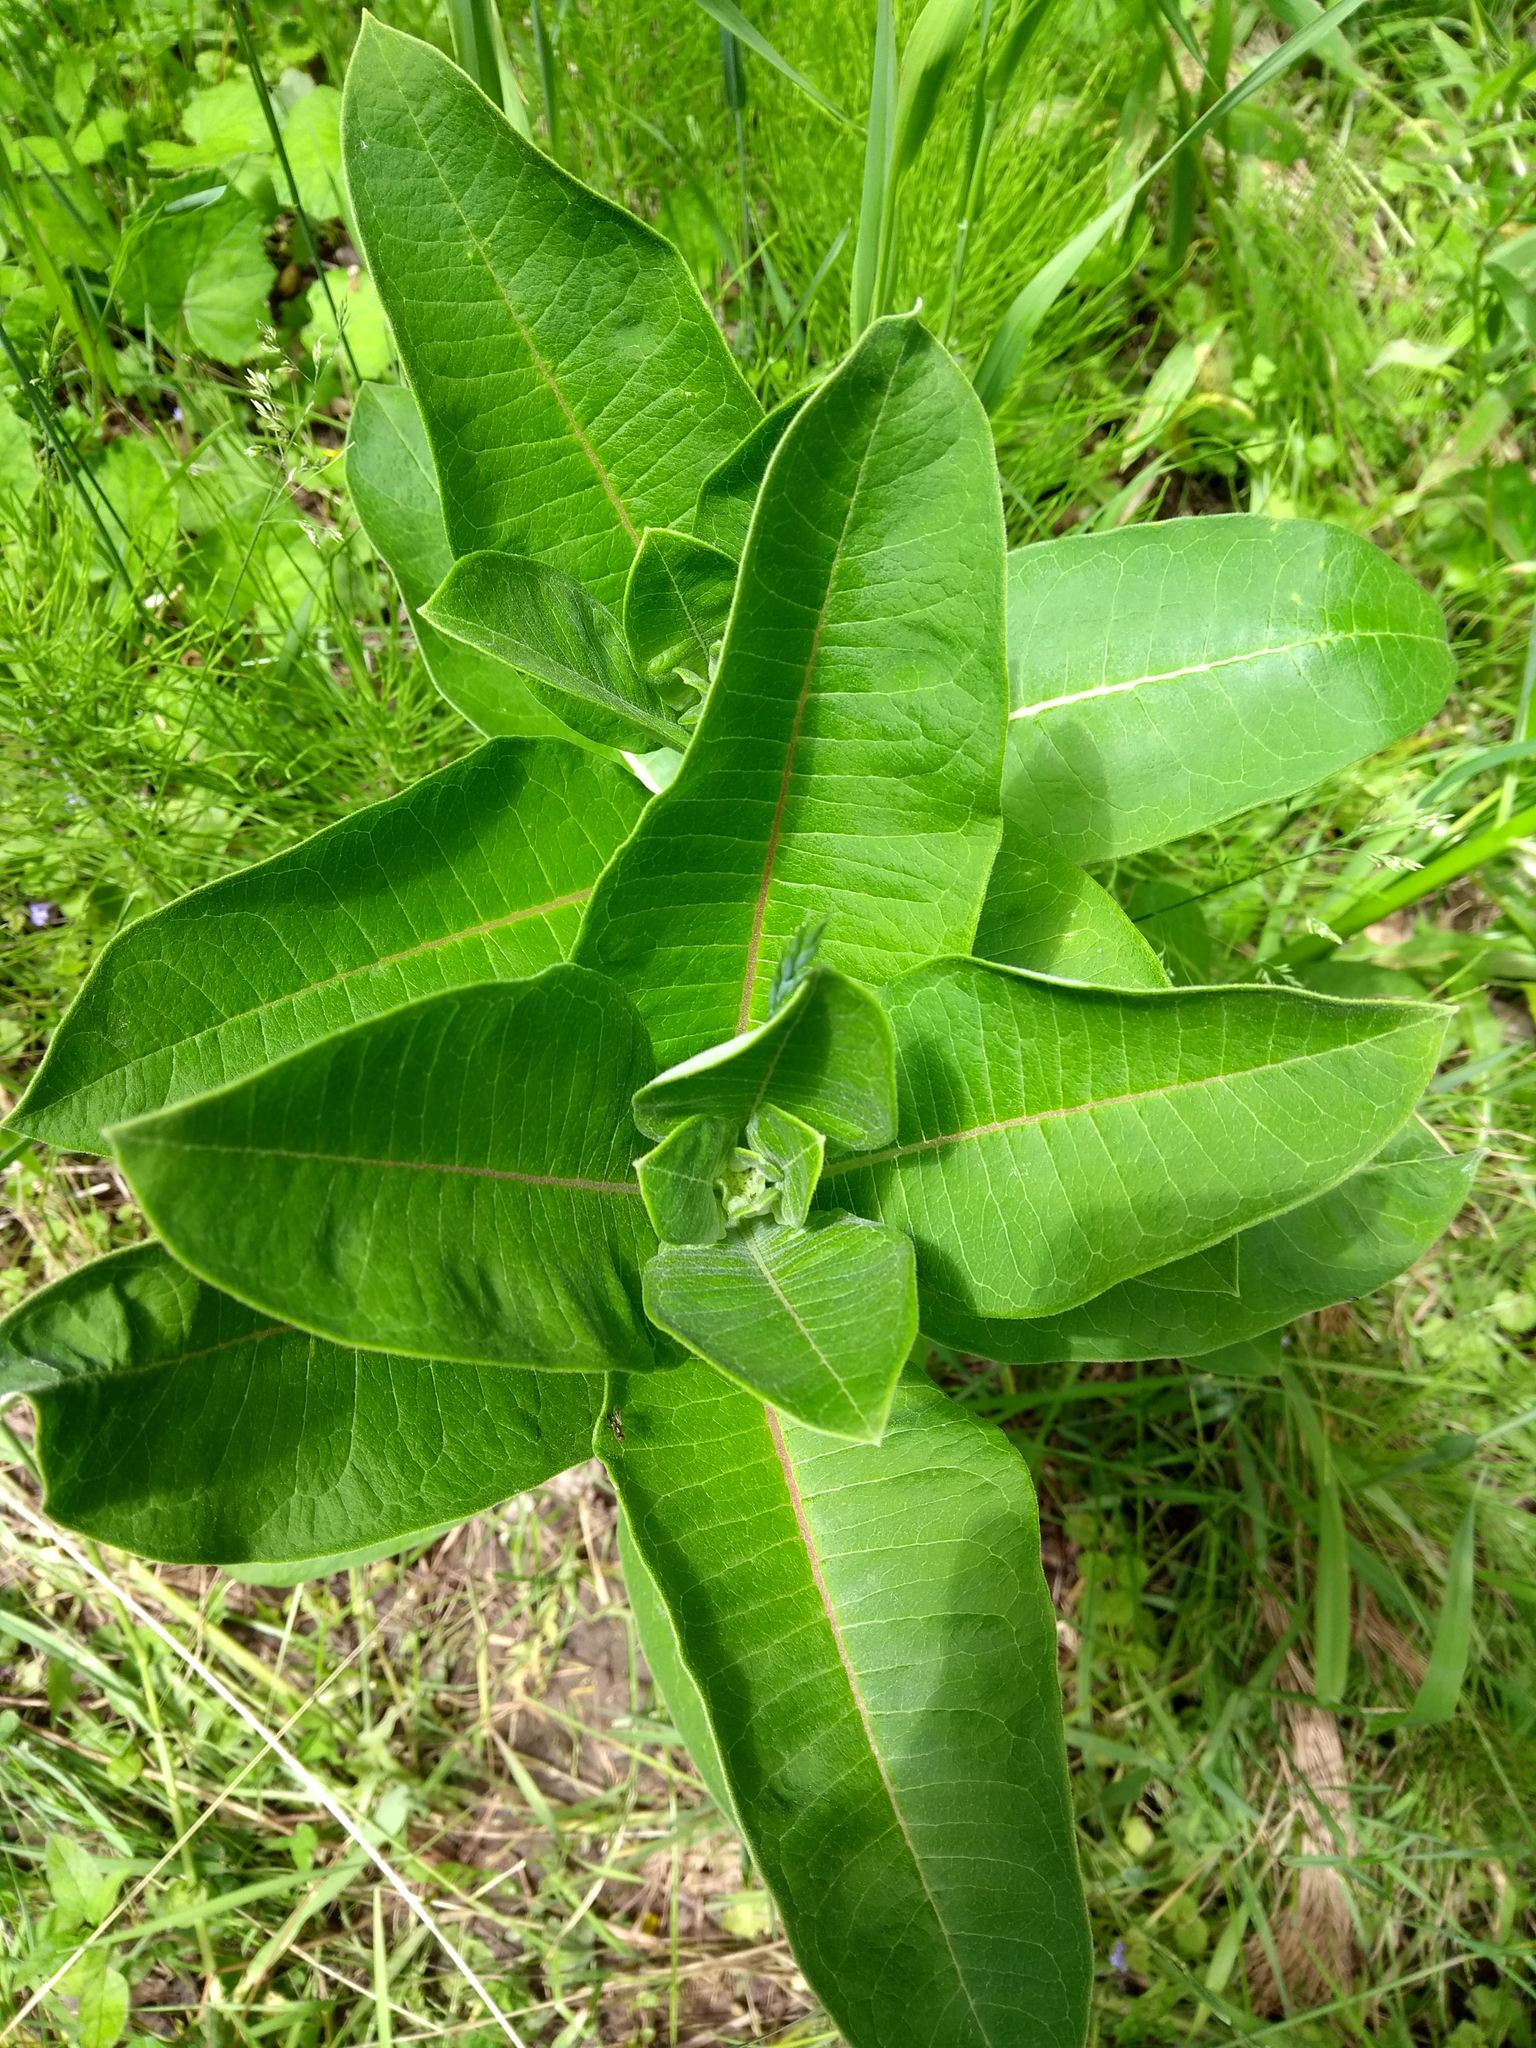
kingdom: Plantae
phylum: Tracheophyta
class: Magnoliopsida
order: Gentianales
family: Apocynaceae
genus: Asclepias
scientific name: Asclepias syriaca
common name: Common milkweed
